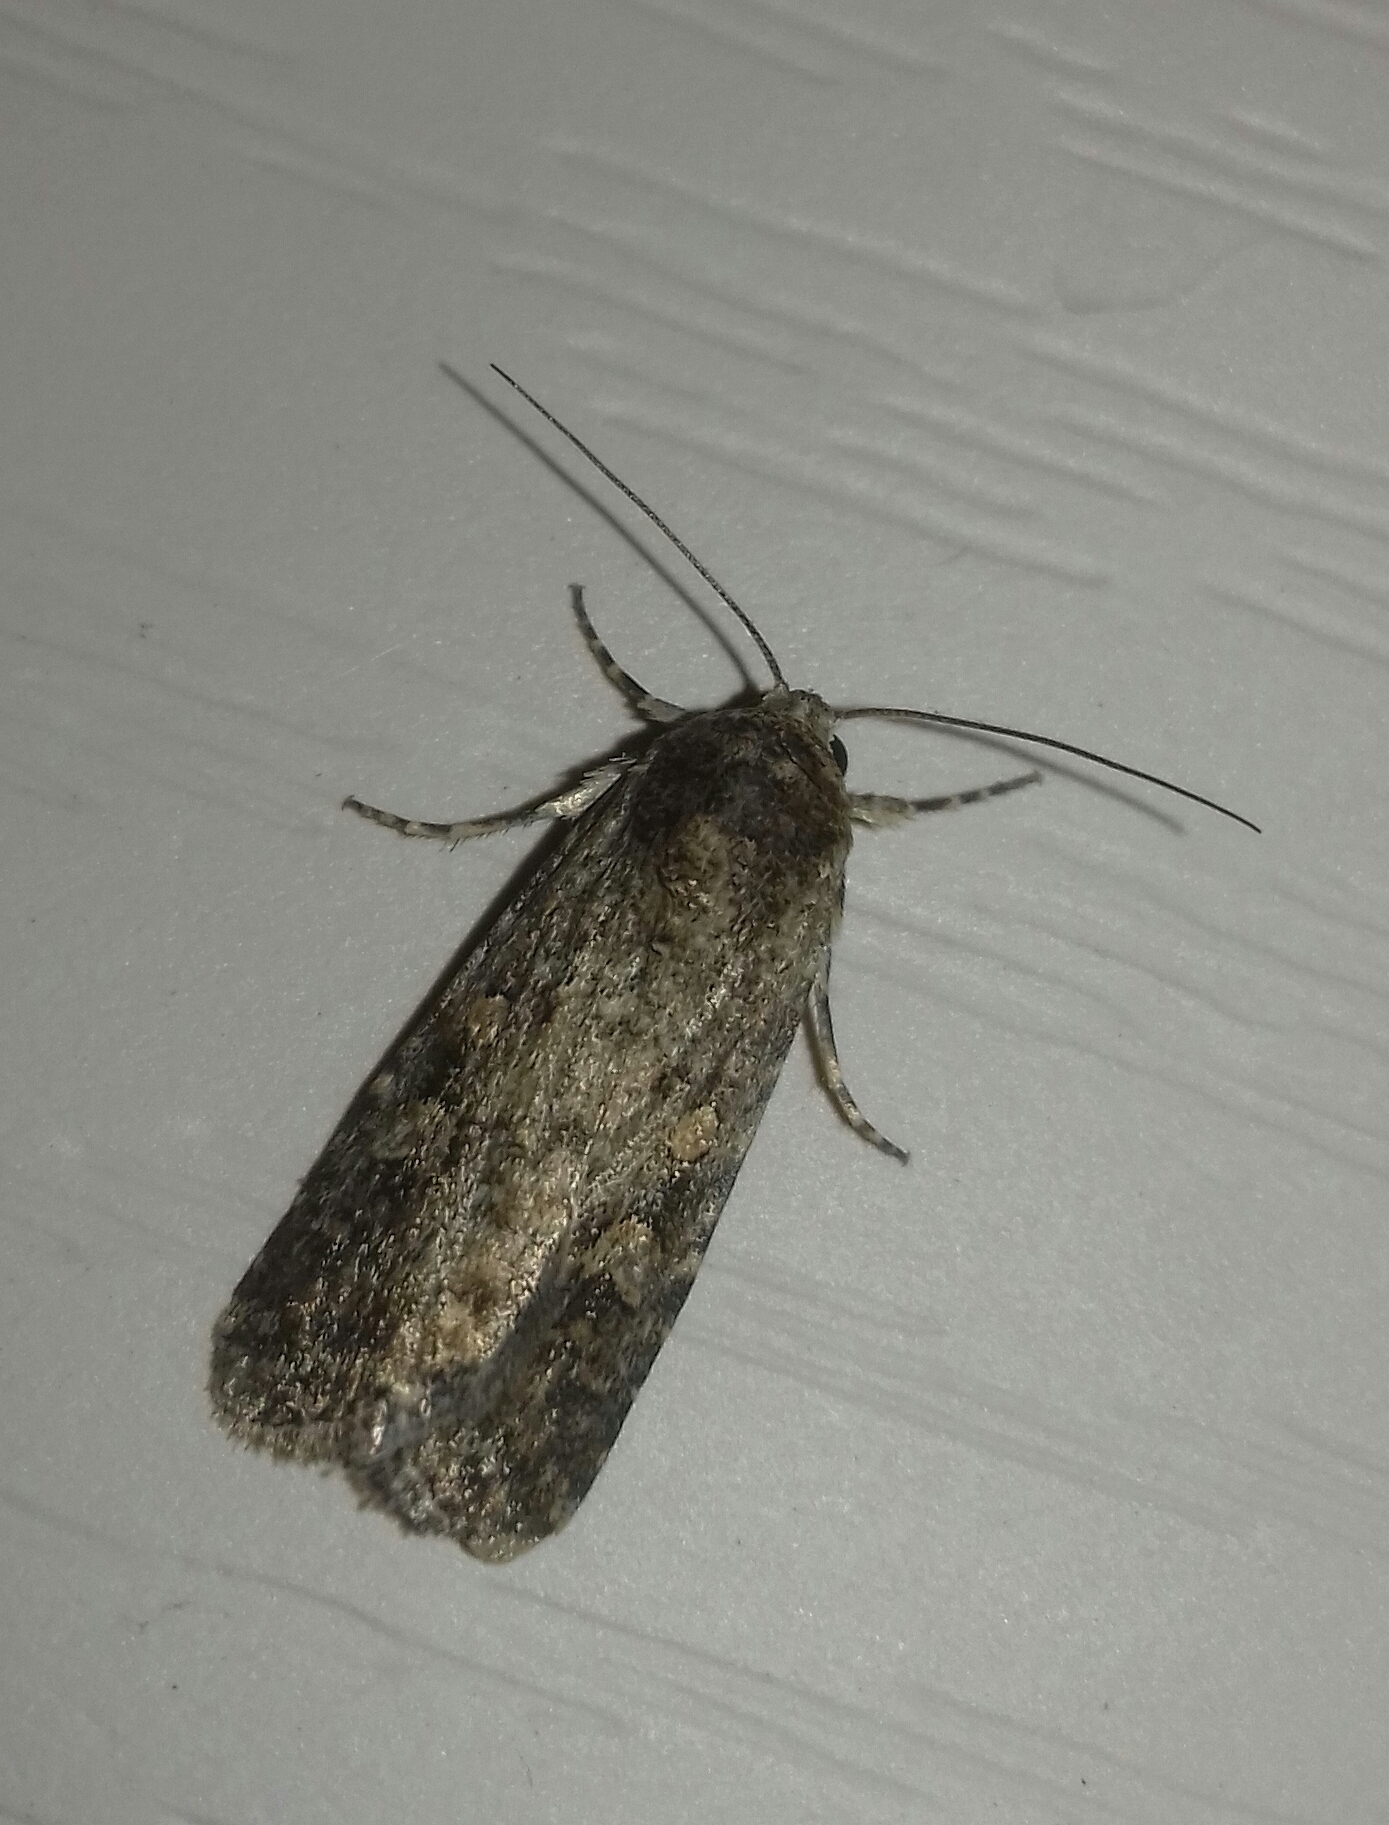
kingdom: Animalia
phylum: Arthropoda
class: Insecta
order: Lepidoptera
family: Noctuidae
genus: Spodoptera
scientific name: Spodoptera exigua
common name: Beet armyworm
